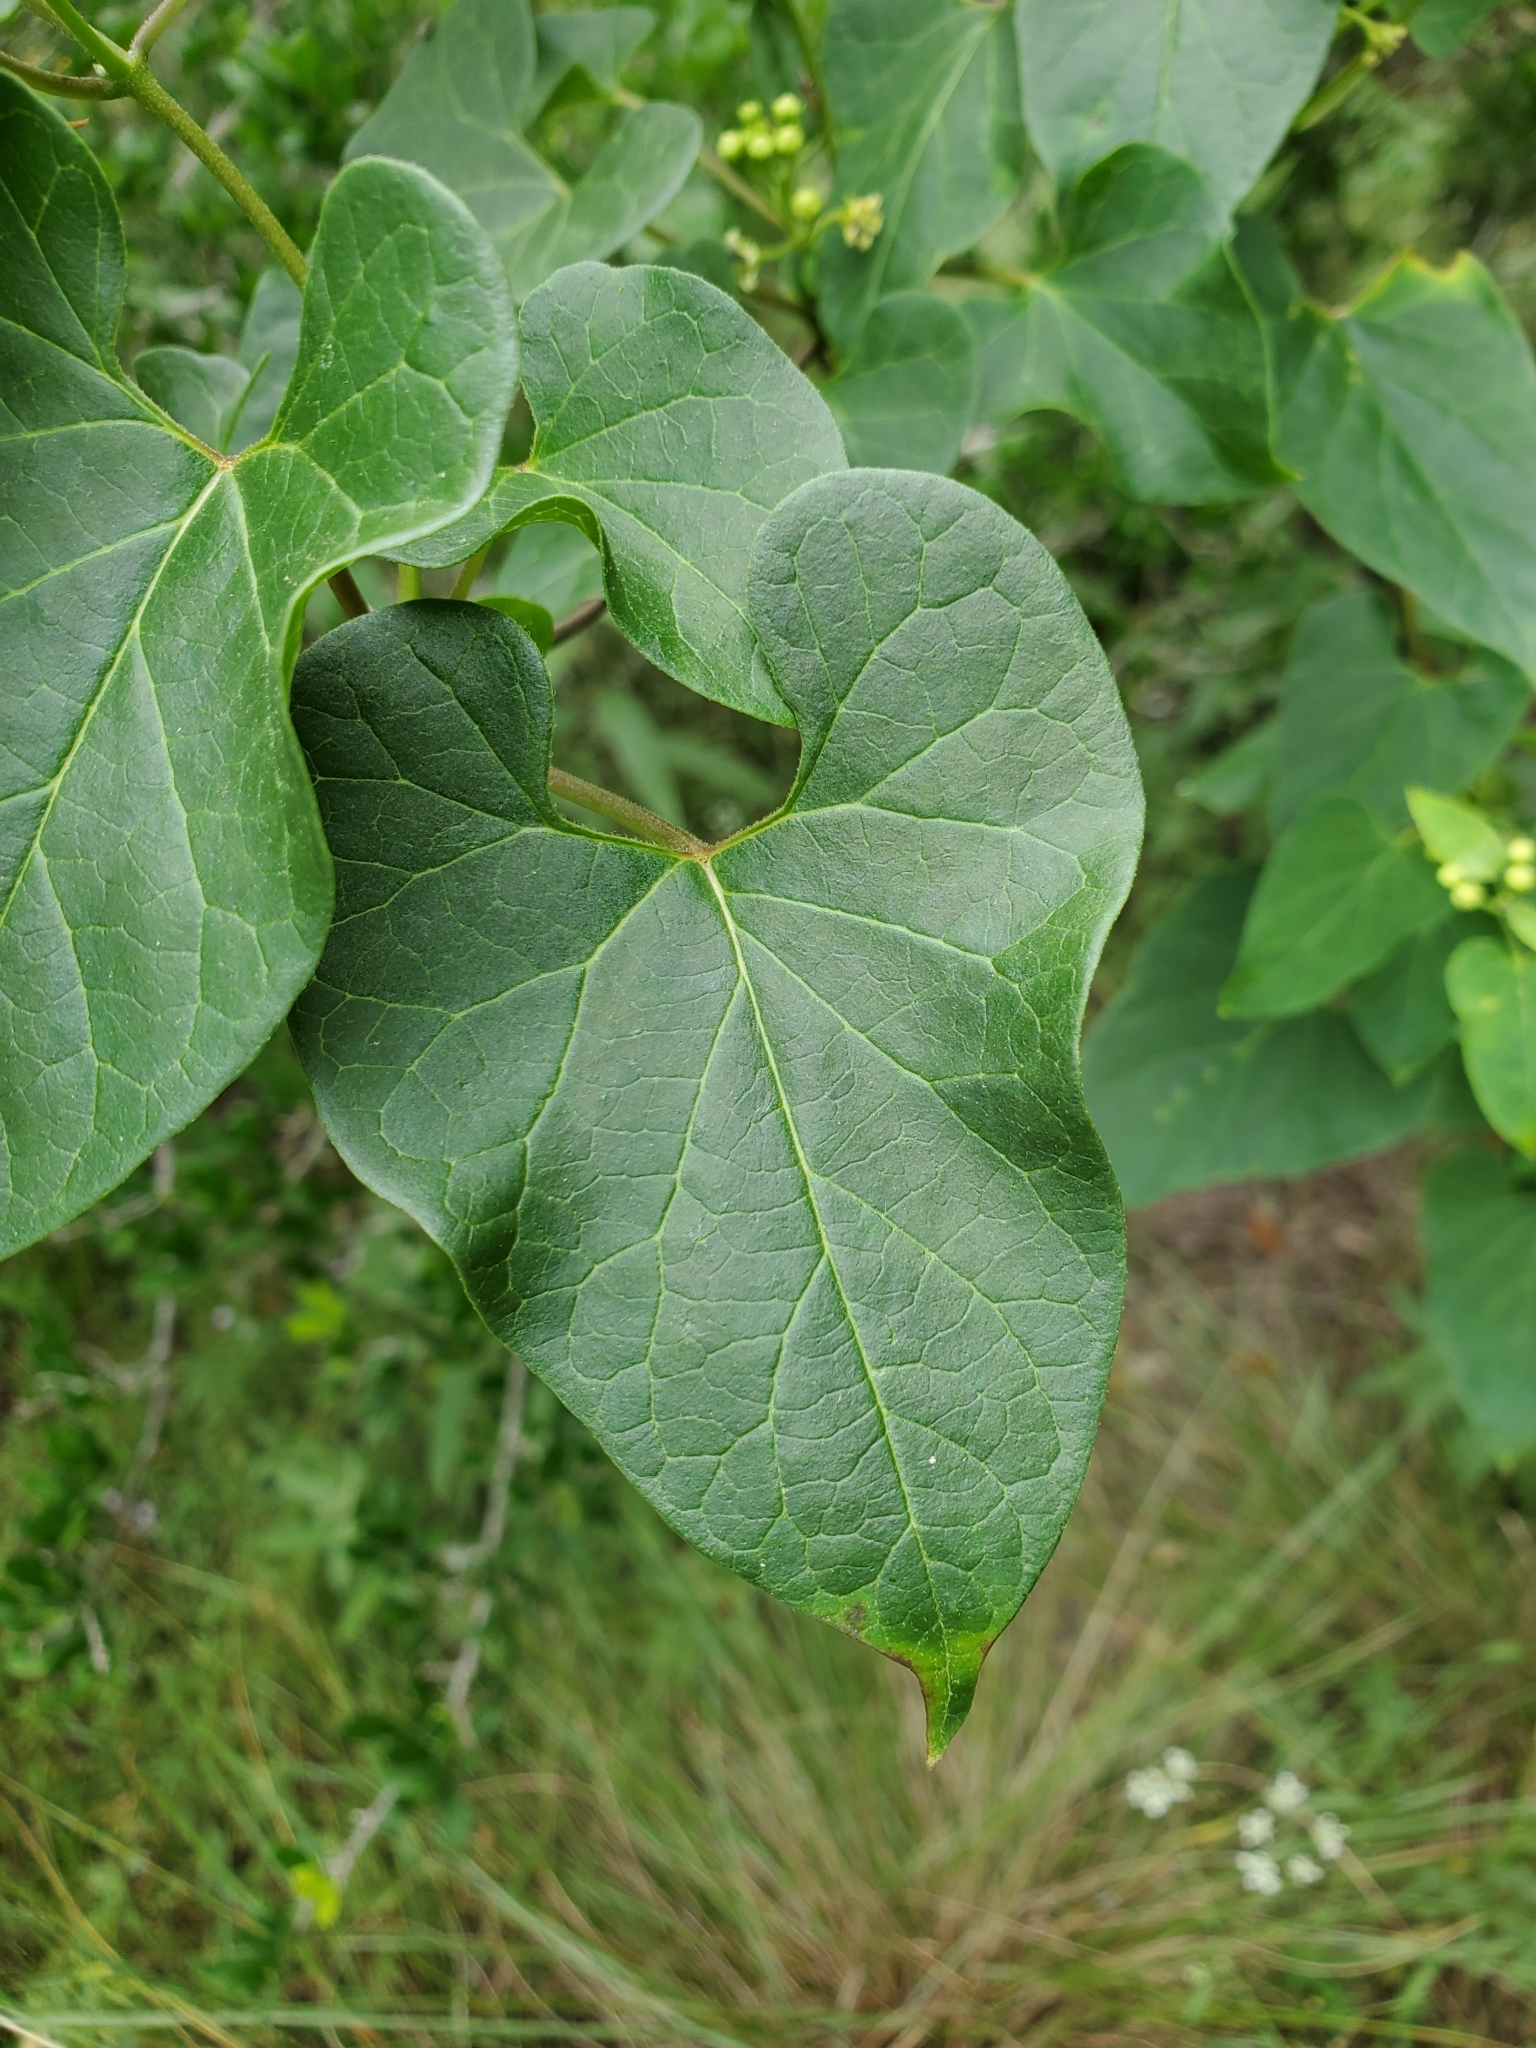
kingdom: Plantae
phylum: Tracheophyta
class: Magnoliopsida
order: Gentianales
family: Apocynaceae
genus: Cynanchum
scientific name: Cynanchum racemosum
